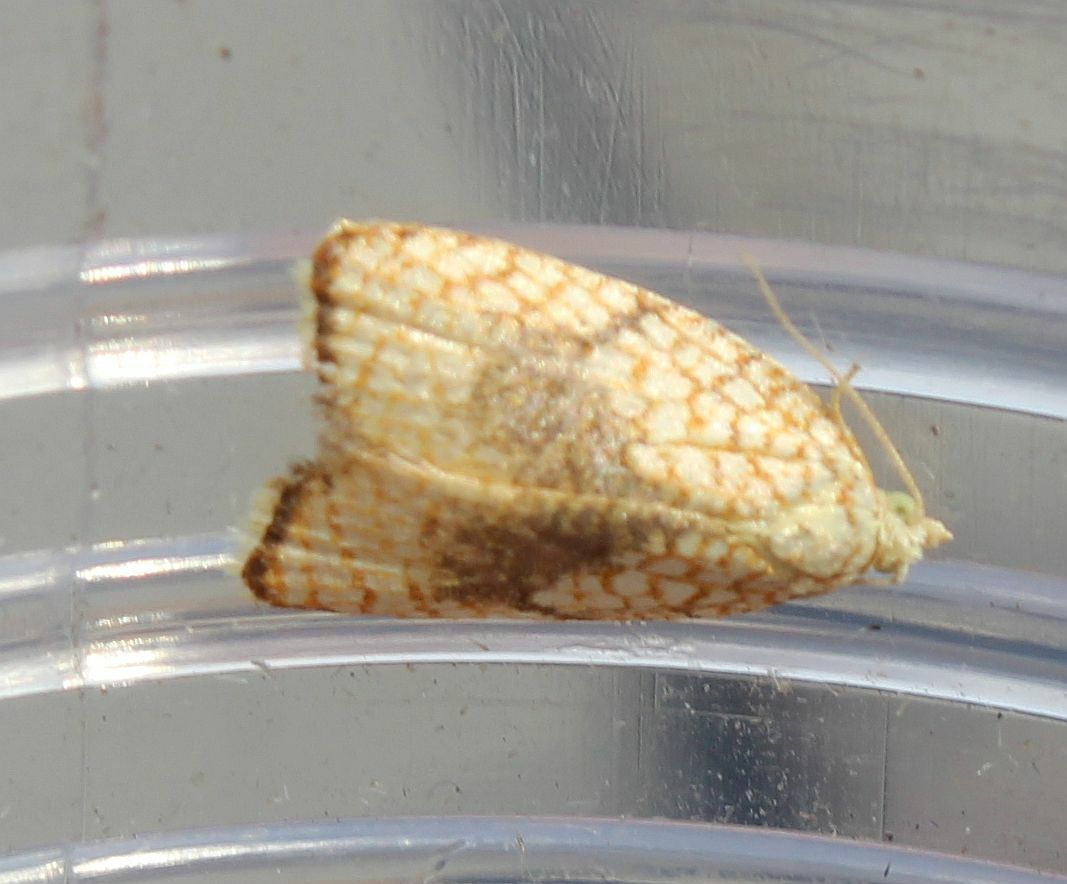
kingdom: Animalia
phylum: Arthropoda
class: Insecta
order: Lepidoptera
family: Tortricidae
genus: Acleris
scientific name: Acleris forsskaleana
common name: Maple button
